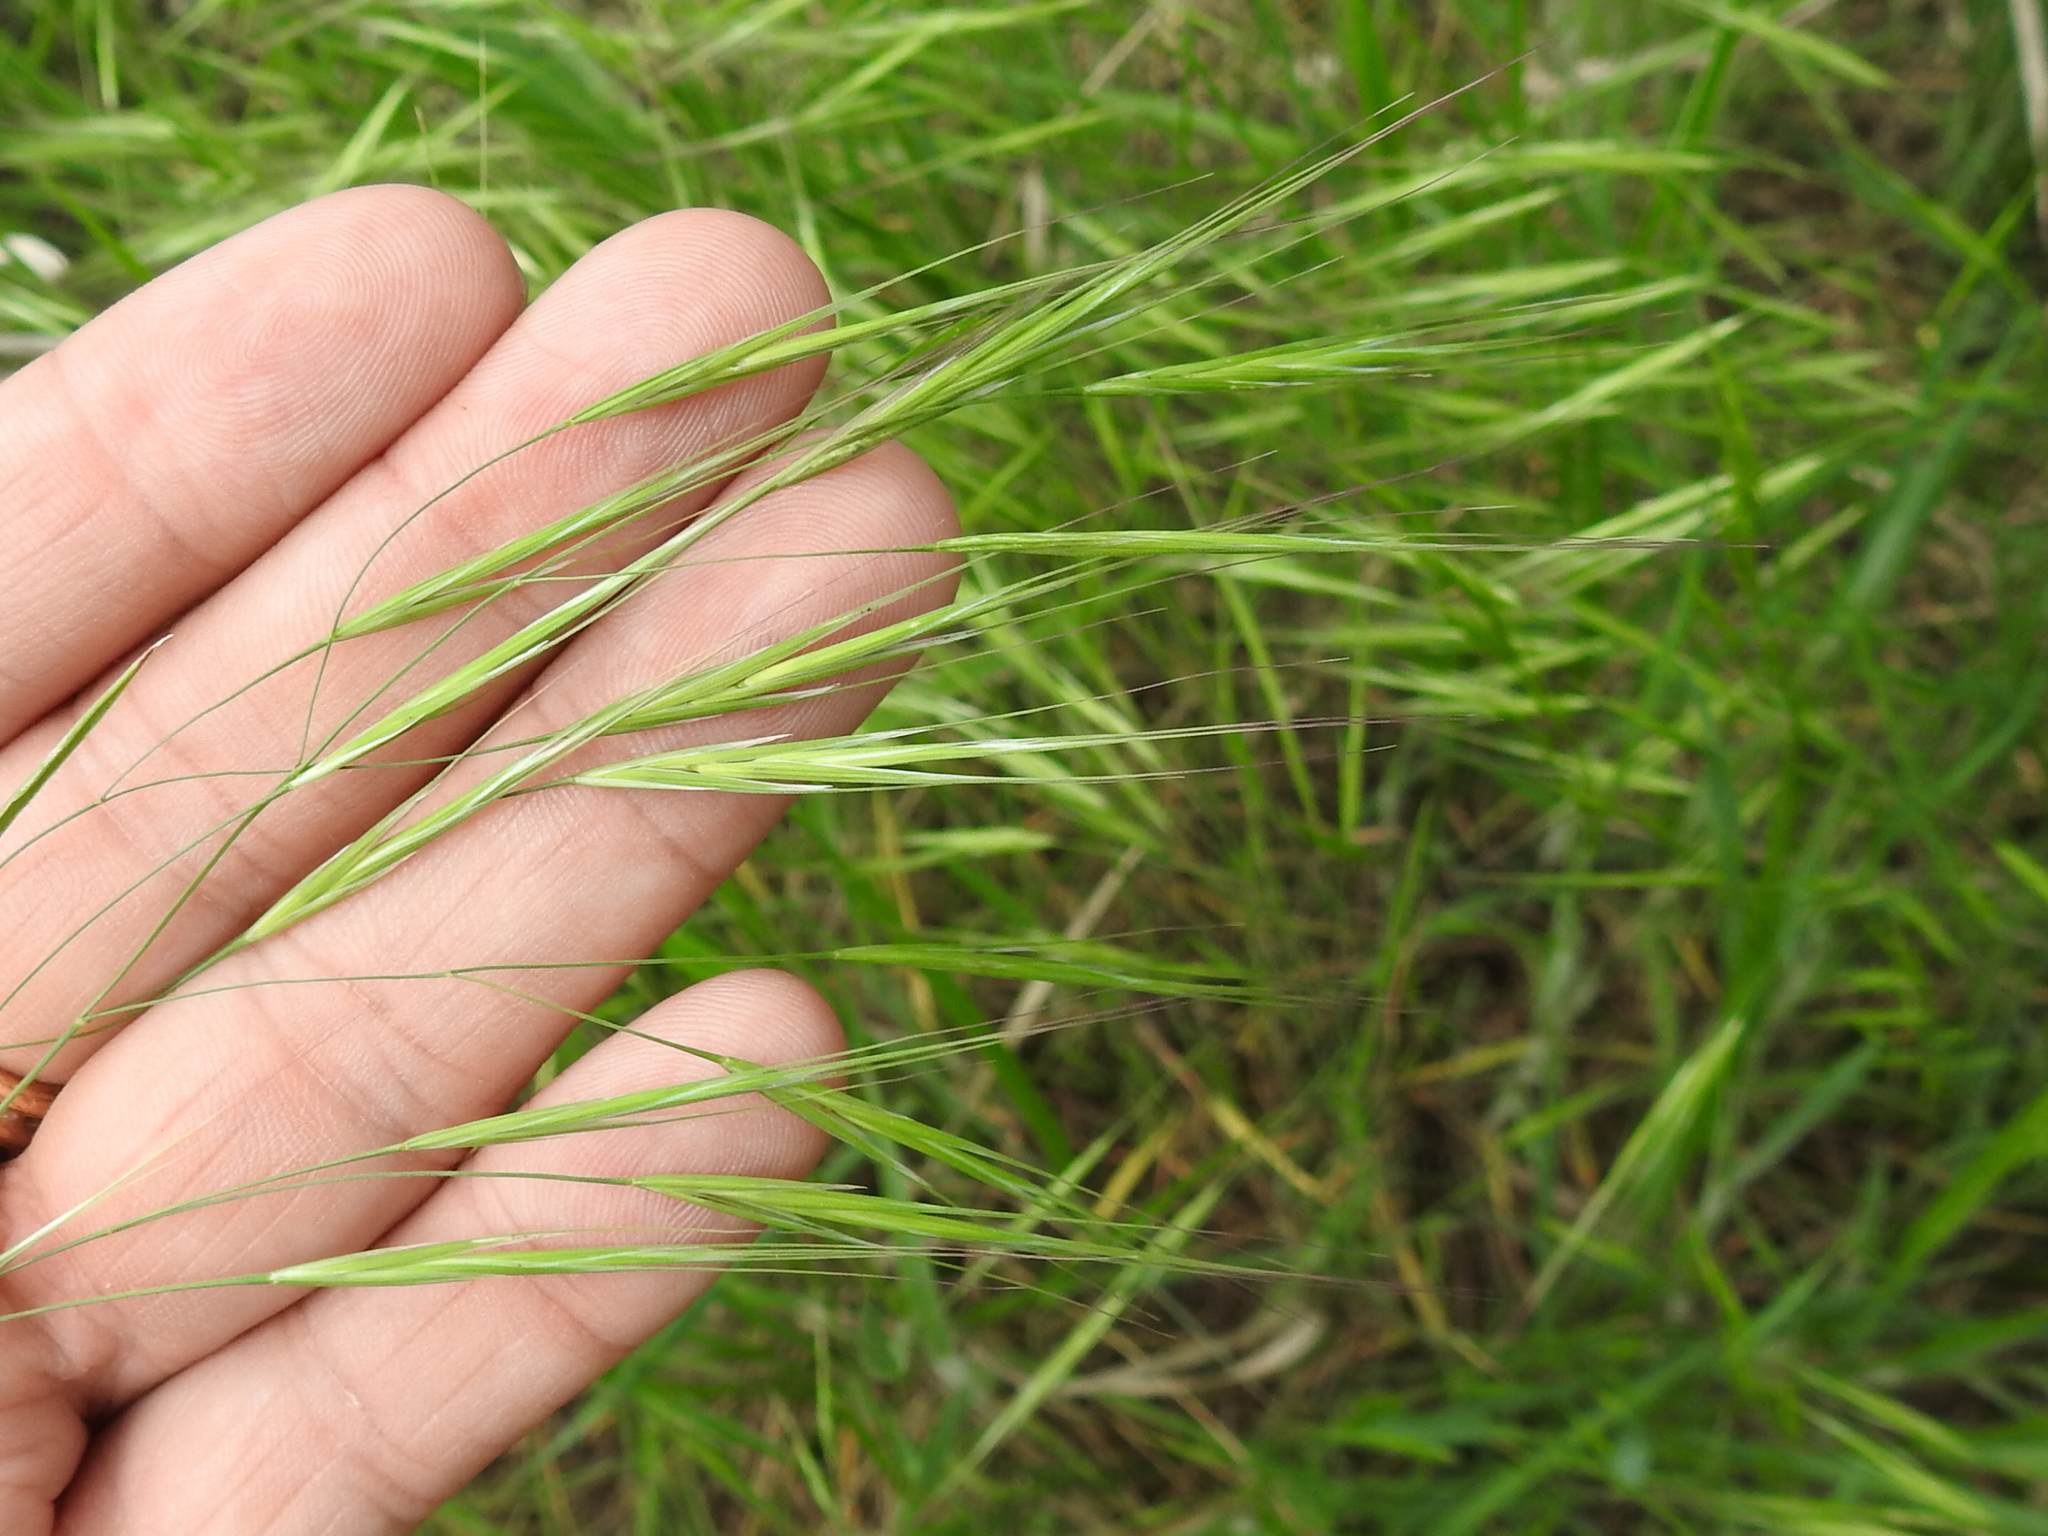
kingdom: Plantae
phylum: Tracheophyta
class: Liliopsida
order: Poales
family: Poaceae
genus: Bromus
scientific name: Bromus rigidus
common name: Ripgut brome
